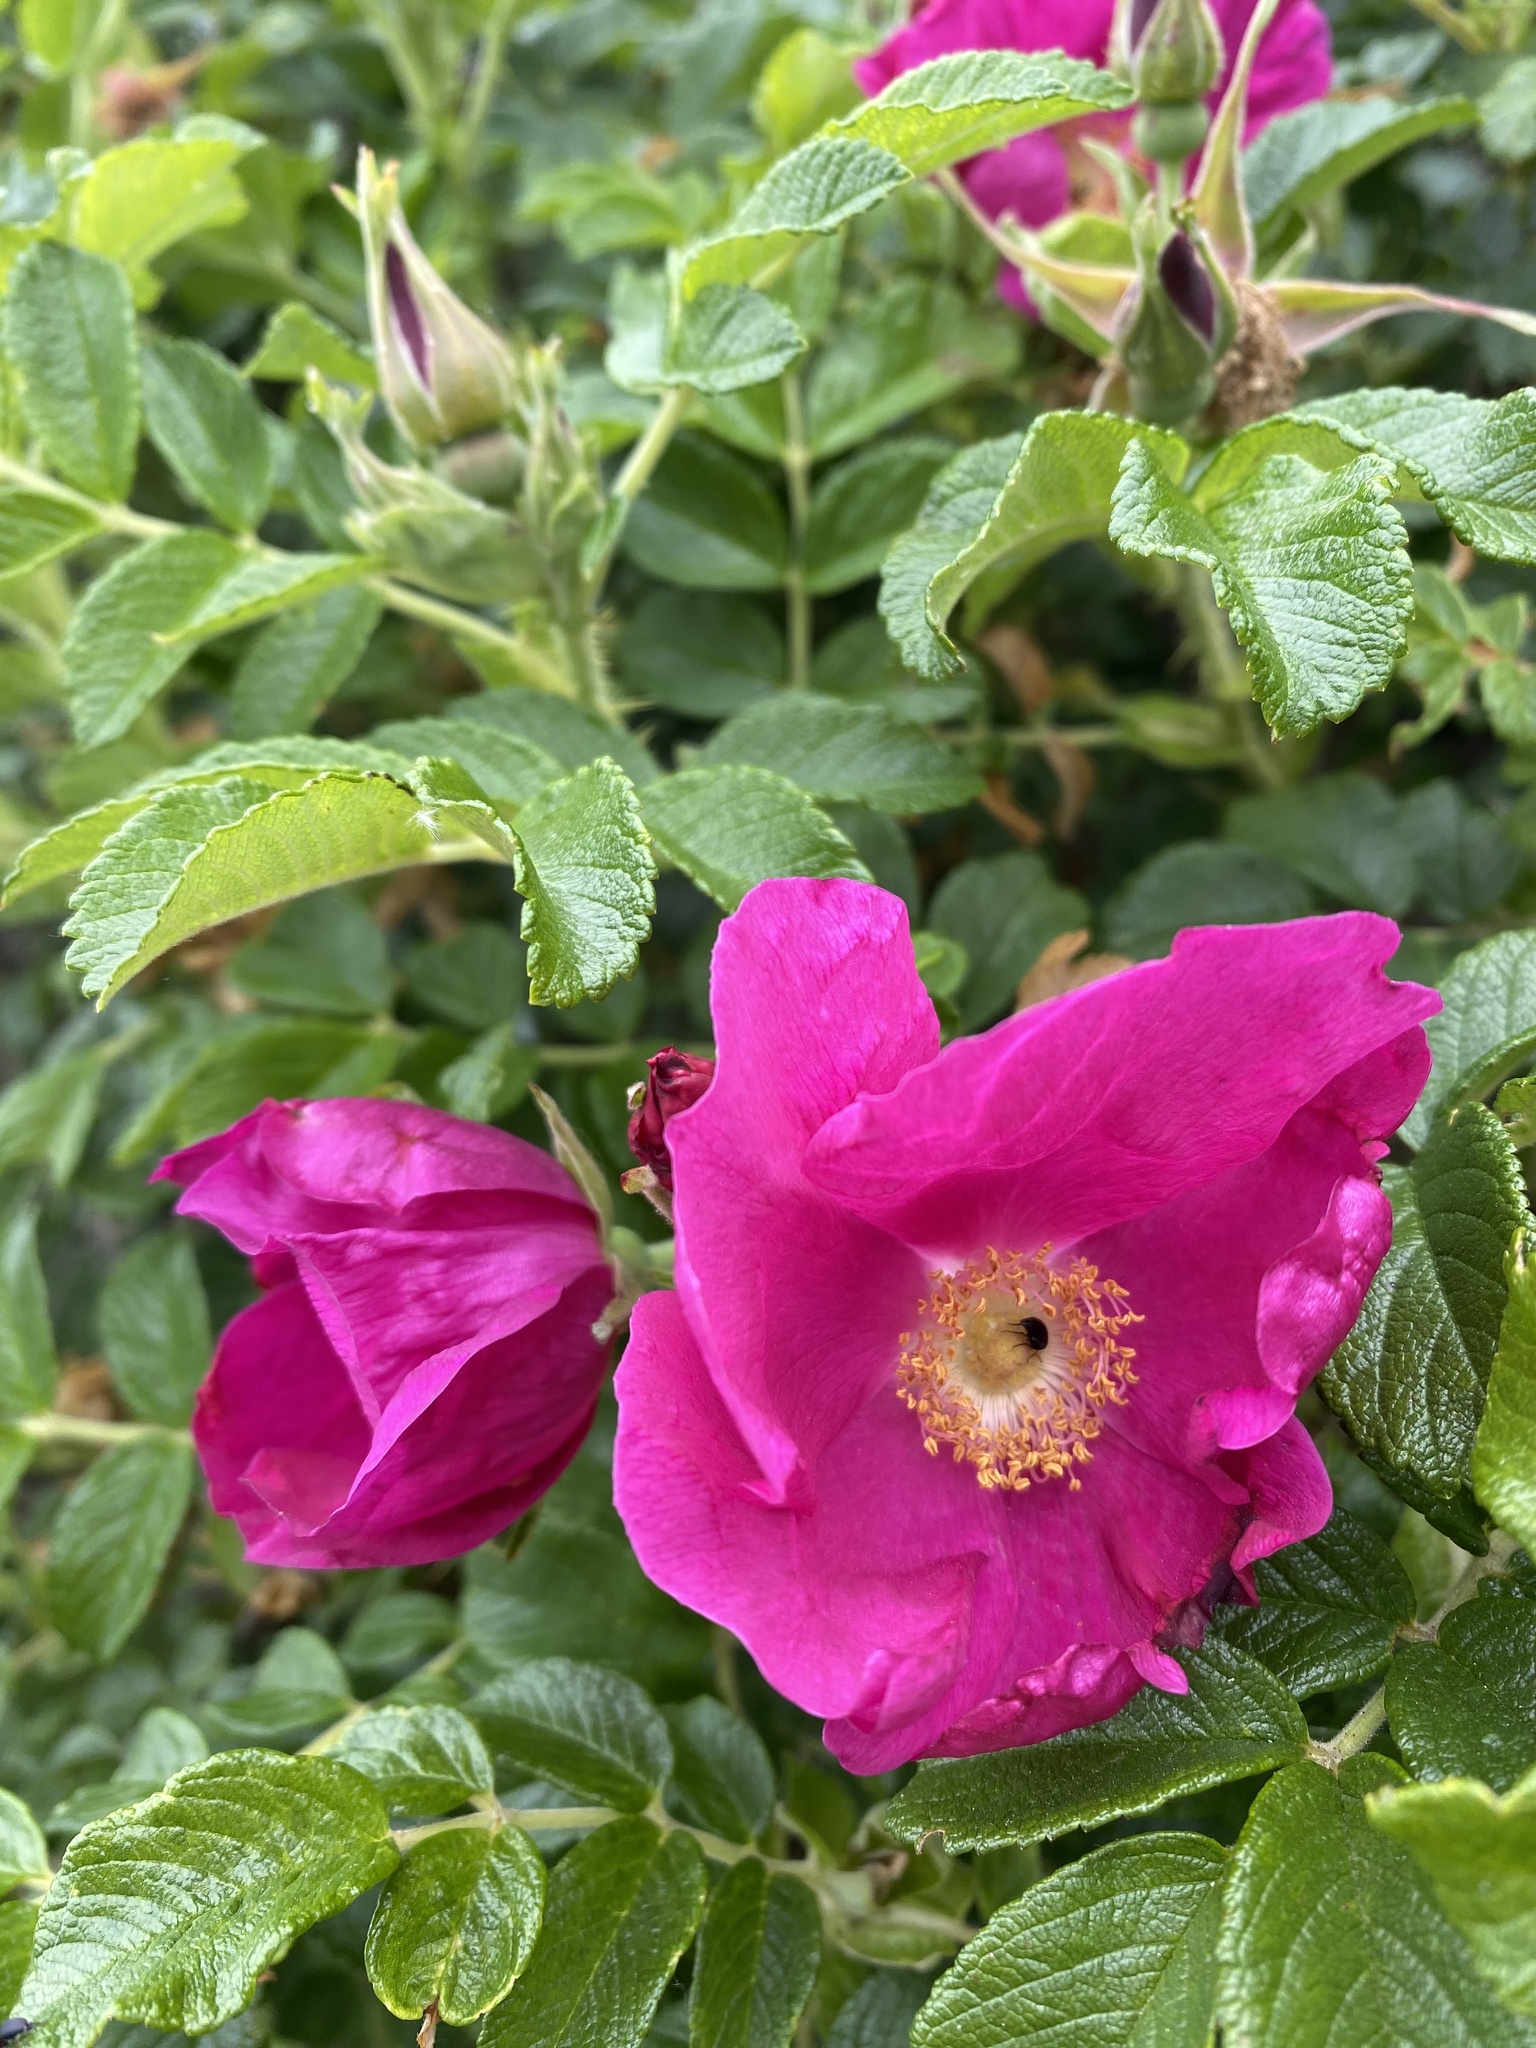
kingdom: Plantae
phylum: Tracheophyta
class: Magnoliopsida
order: Rosales
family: Rosaceae
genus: Rosa
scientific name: Rosa rugosa
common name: Japanese rose
